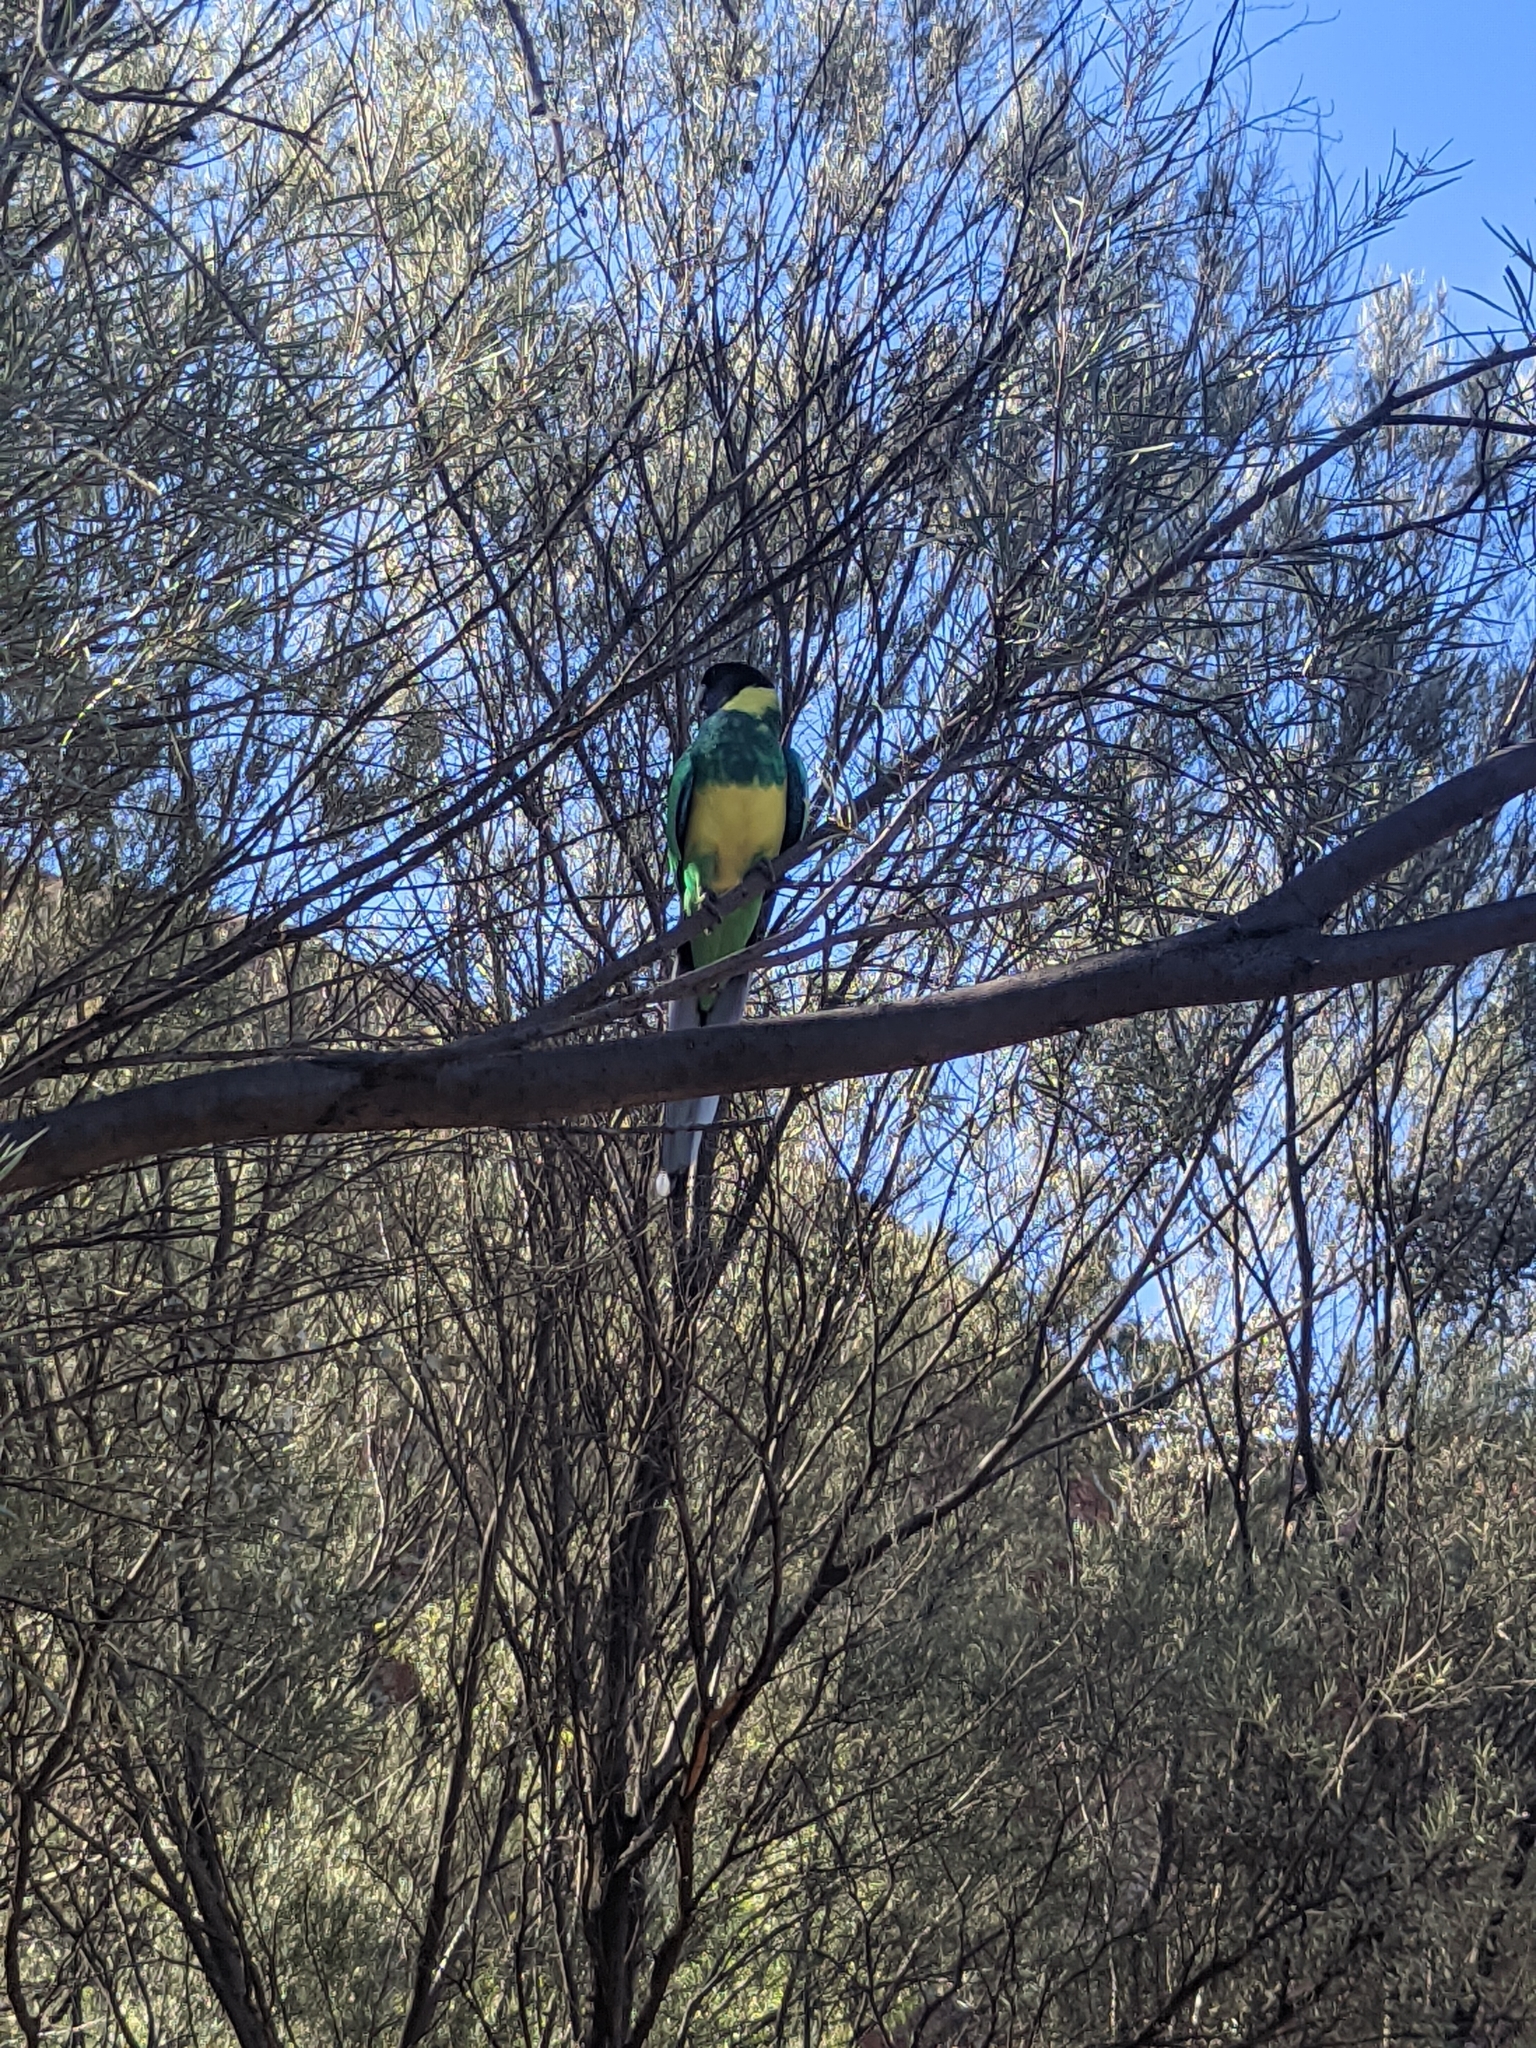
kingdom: Animalia
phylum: Chordata
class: Aves
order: Psittaciformes
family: Psittacidae
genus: Barnardius
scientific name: Barnardius zonarius
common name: Australian ringneck
